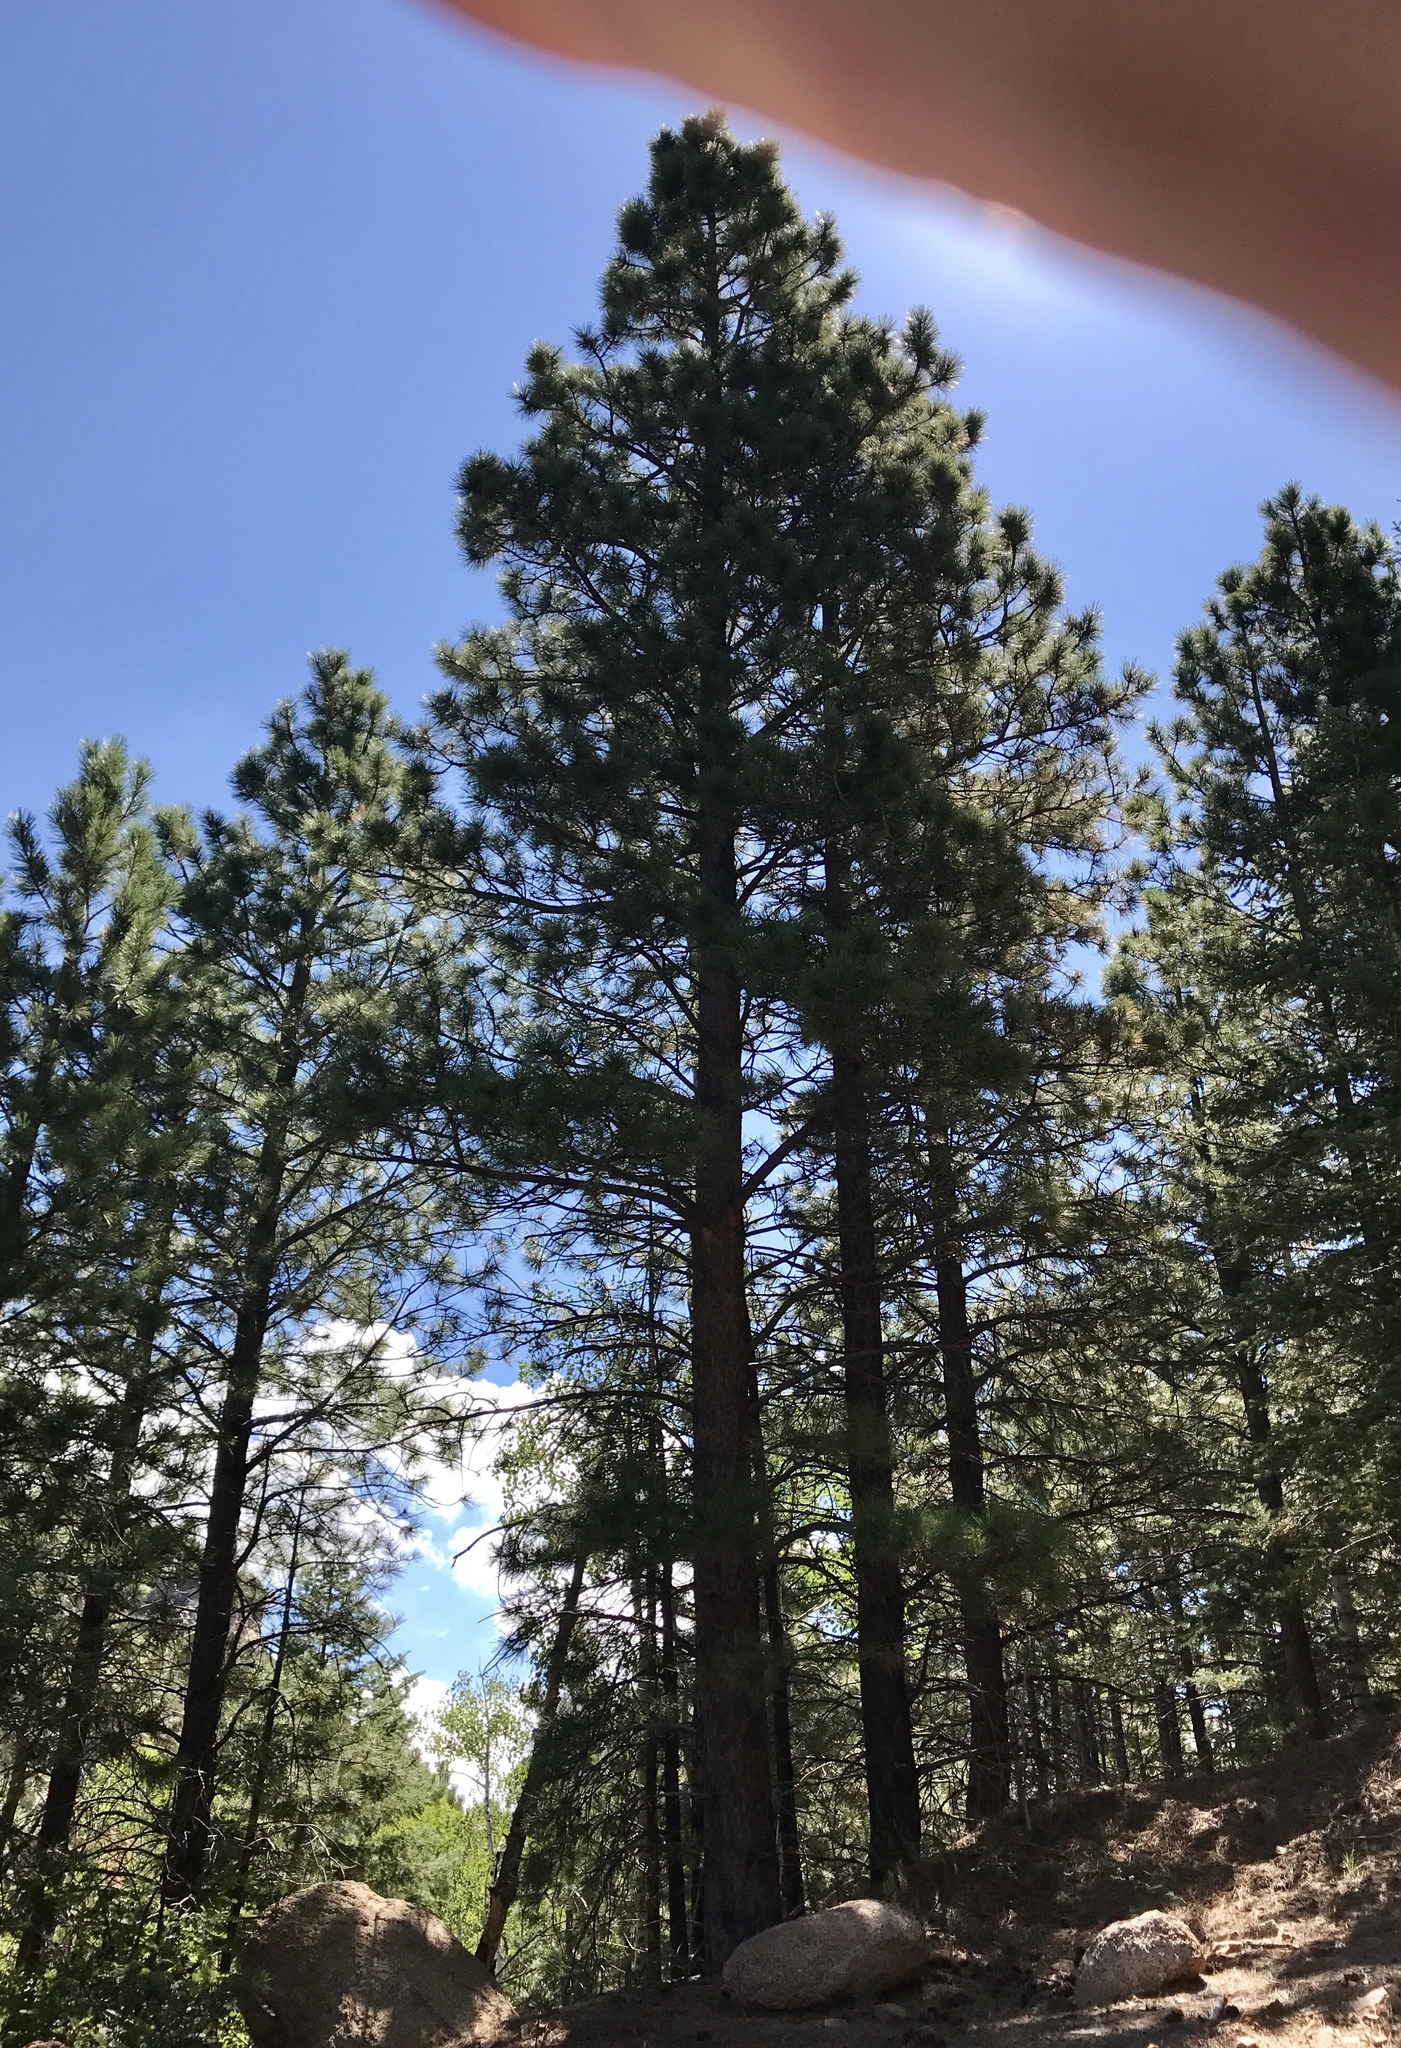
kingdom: Plantae
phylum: Tracheophyta
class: Pinopsida
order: Pinales
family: Pinaceae
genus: Pinus
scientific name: Pinus ponderosa
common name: Western yellow-pine
